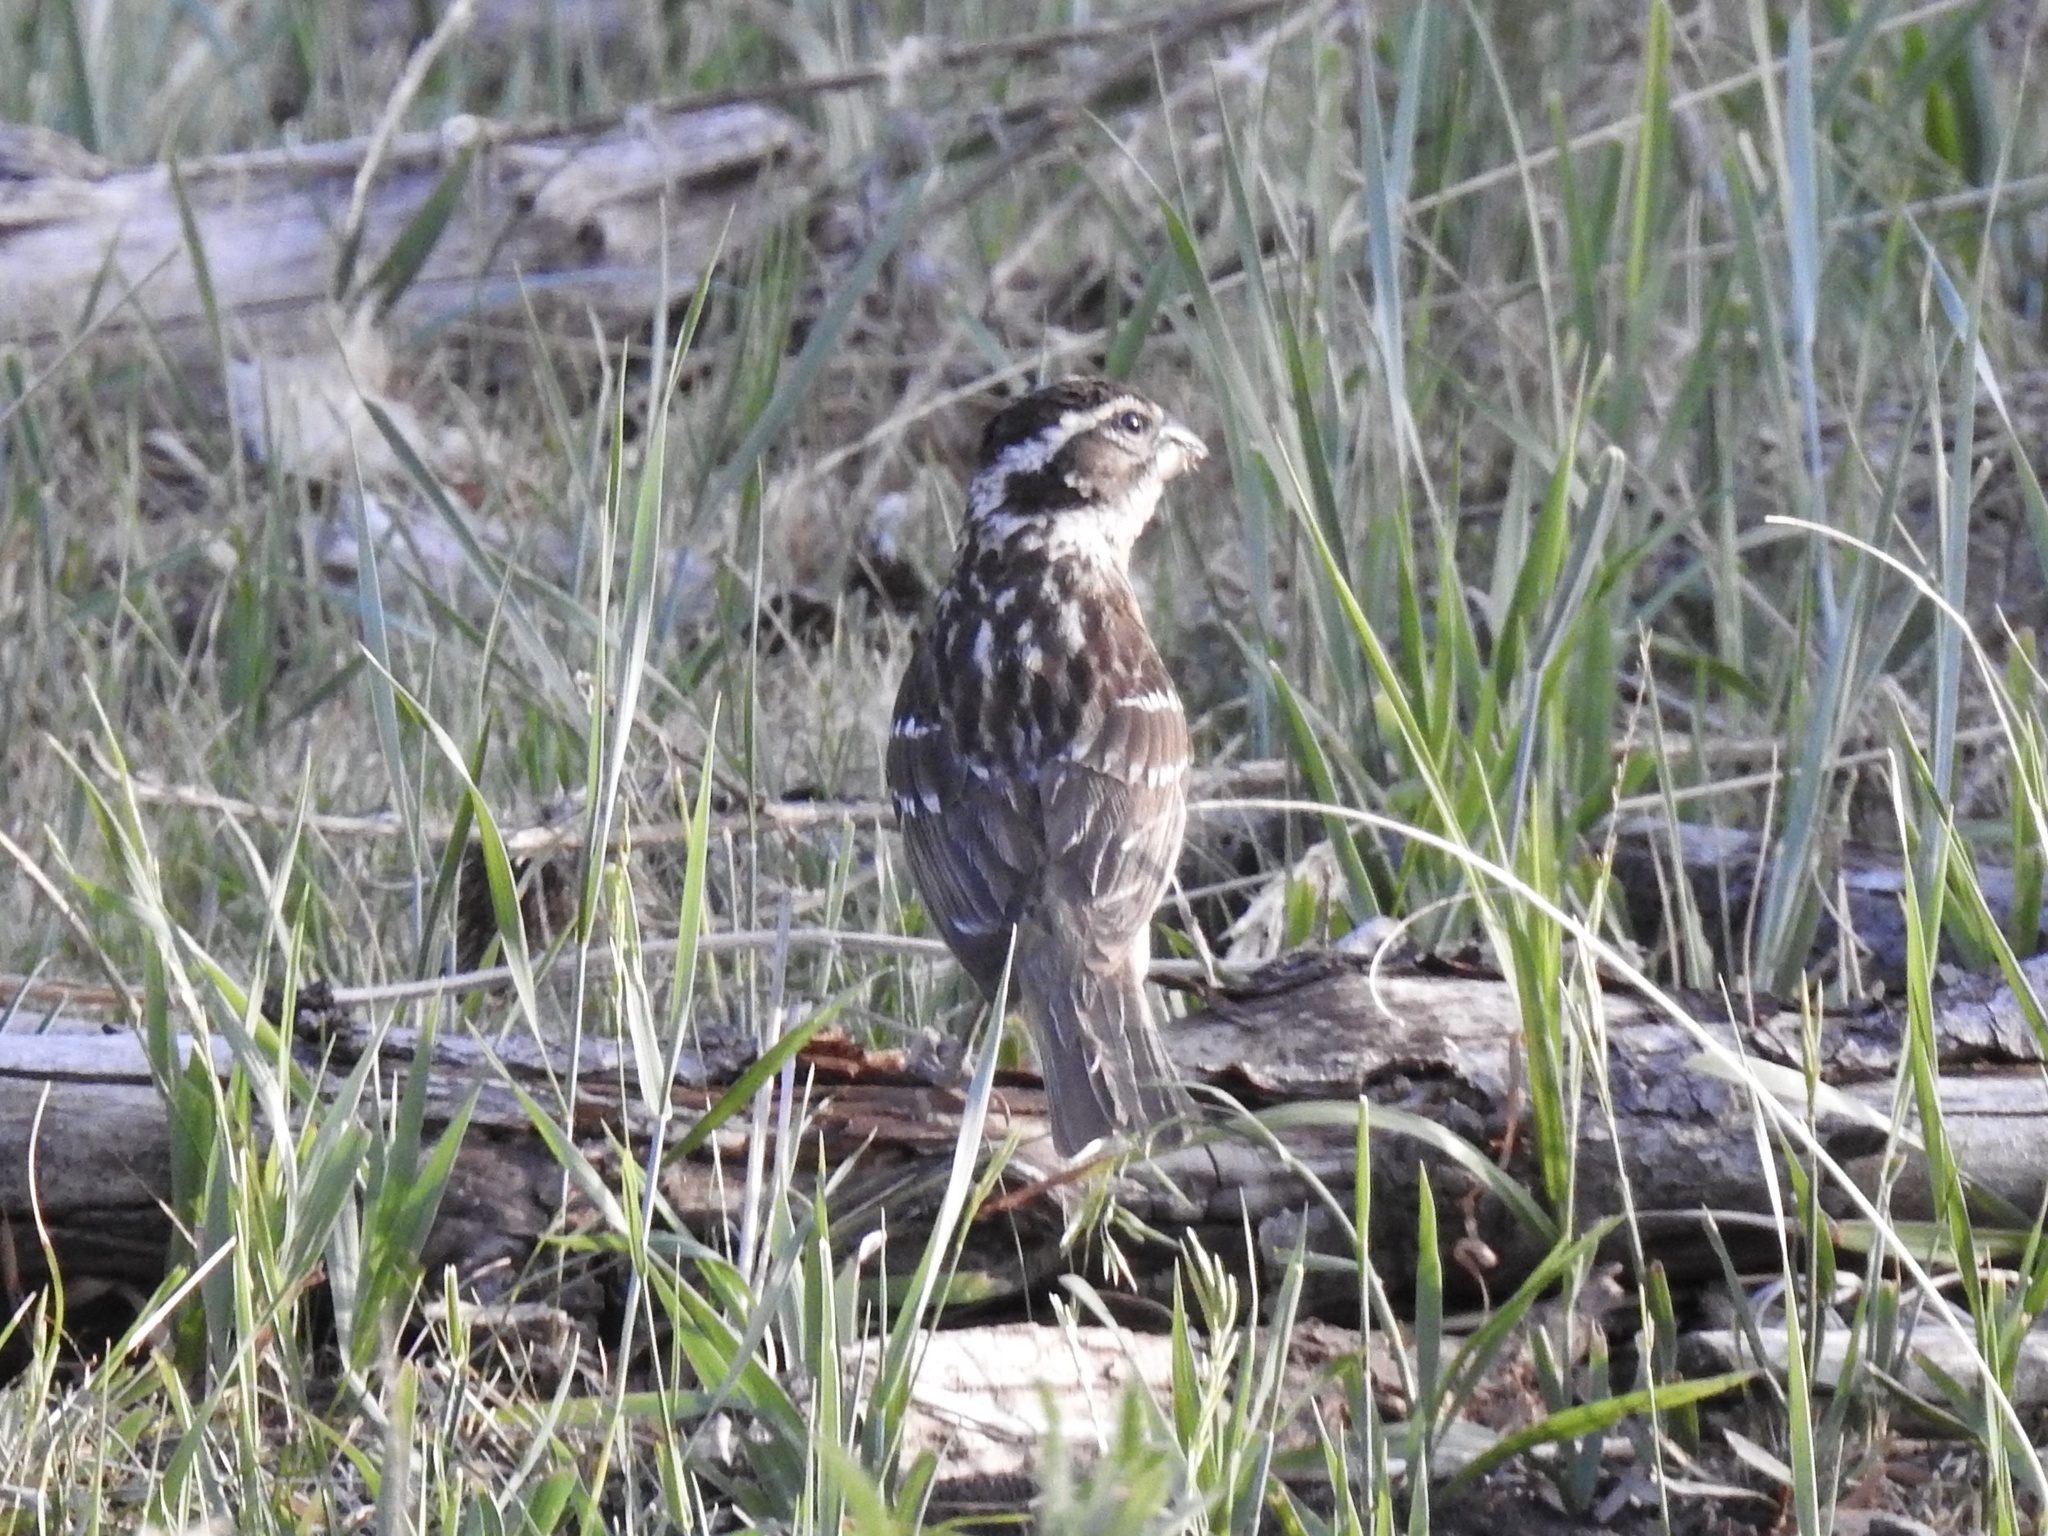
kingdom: Animalia
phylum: Chordata
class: Aves
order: Passeriformes
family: Cardinalidae
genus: Pheucticus
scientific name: Pheucticus melanocephalus
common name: Black-headed grosbeak
